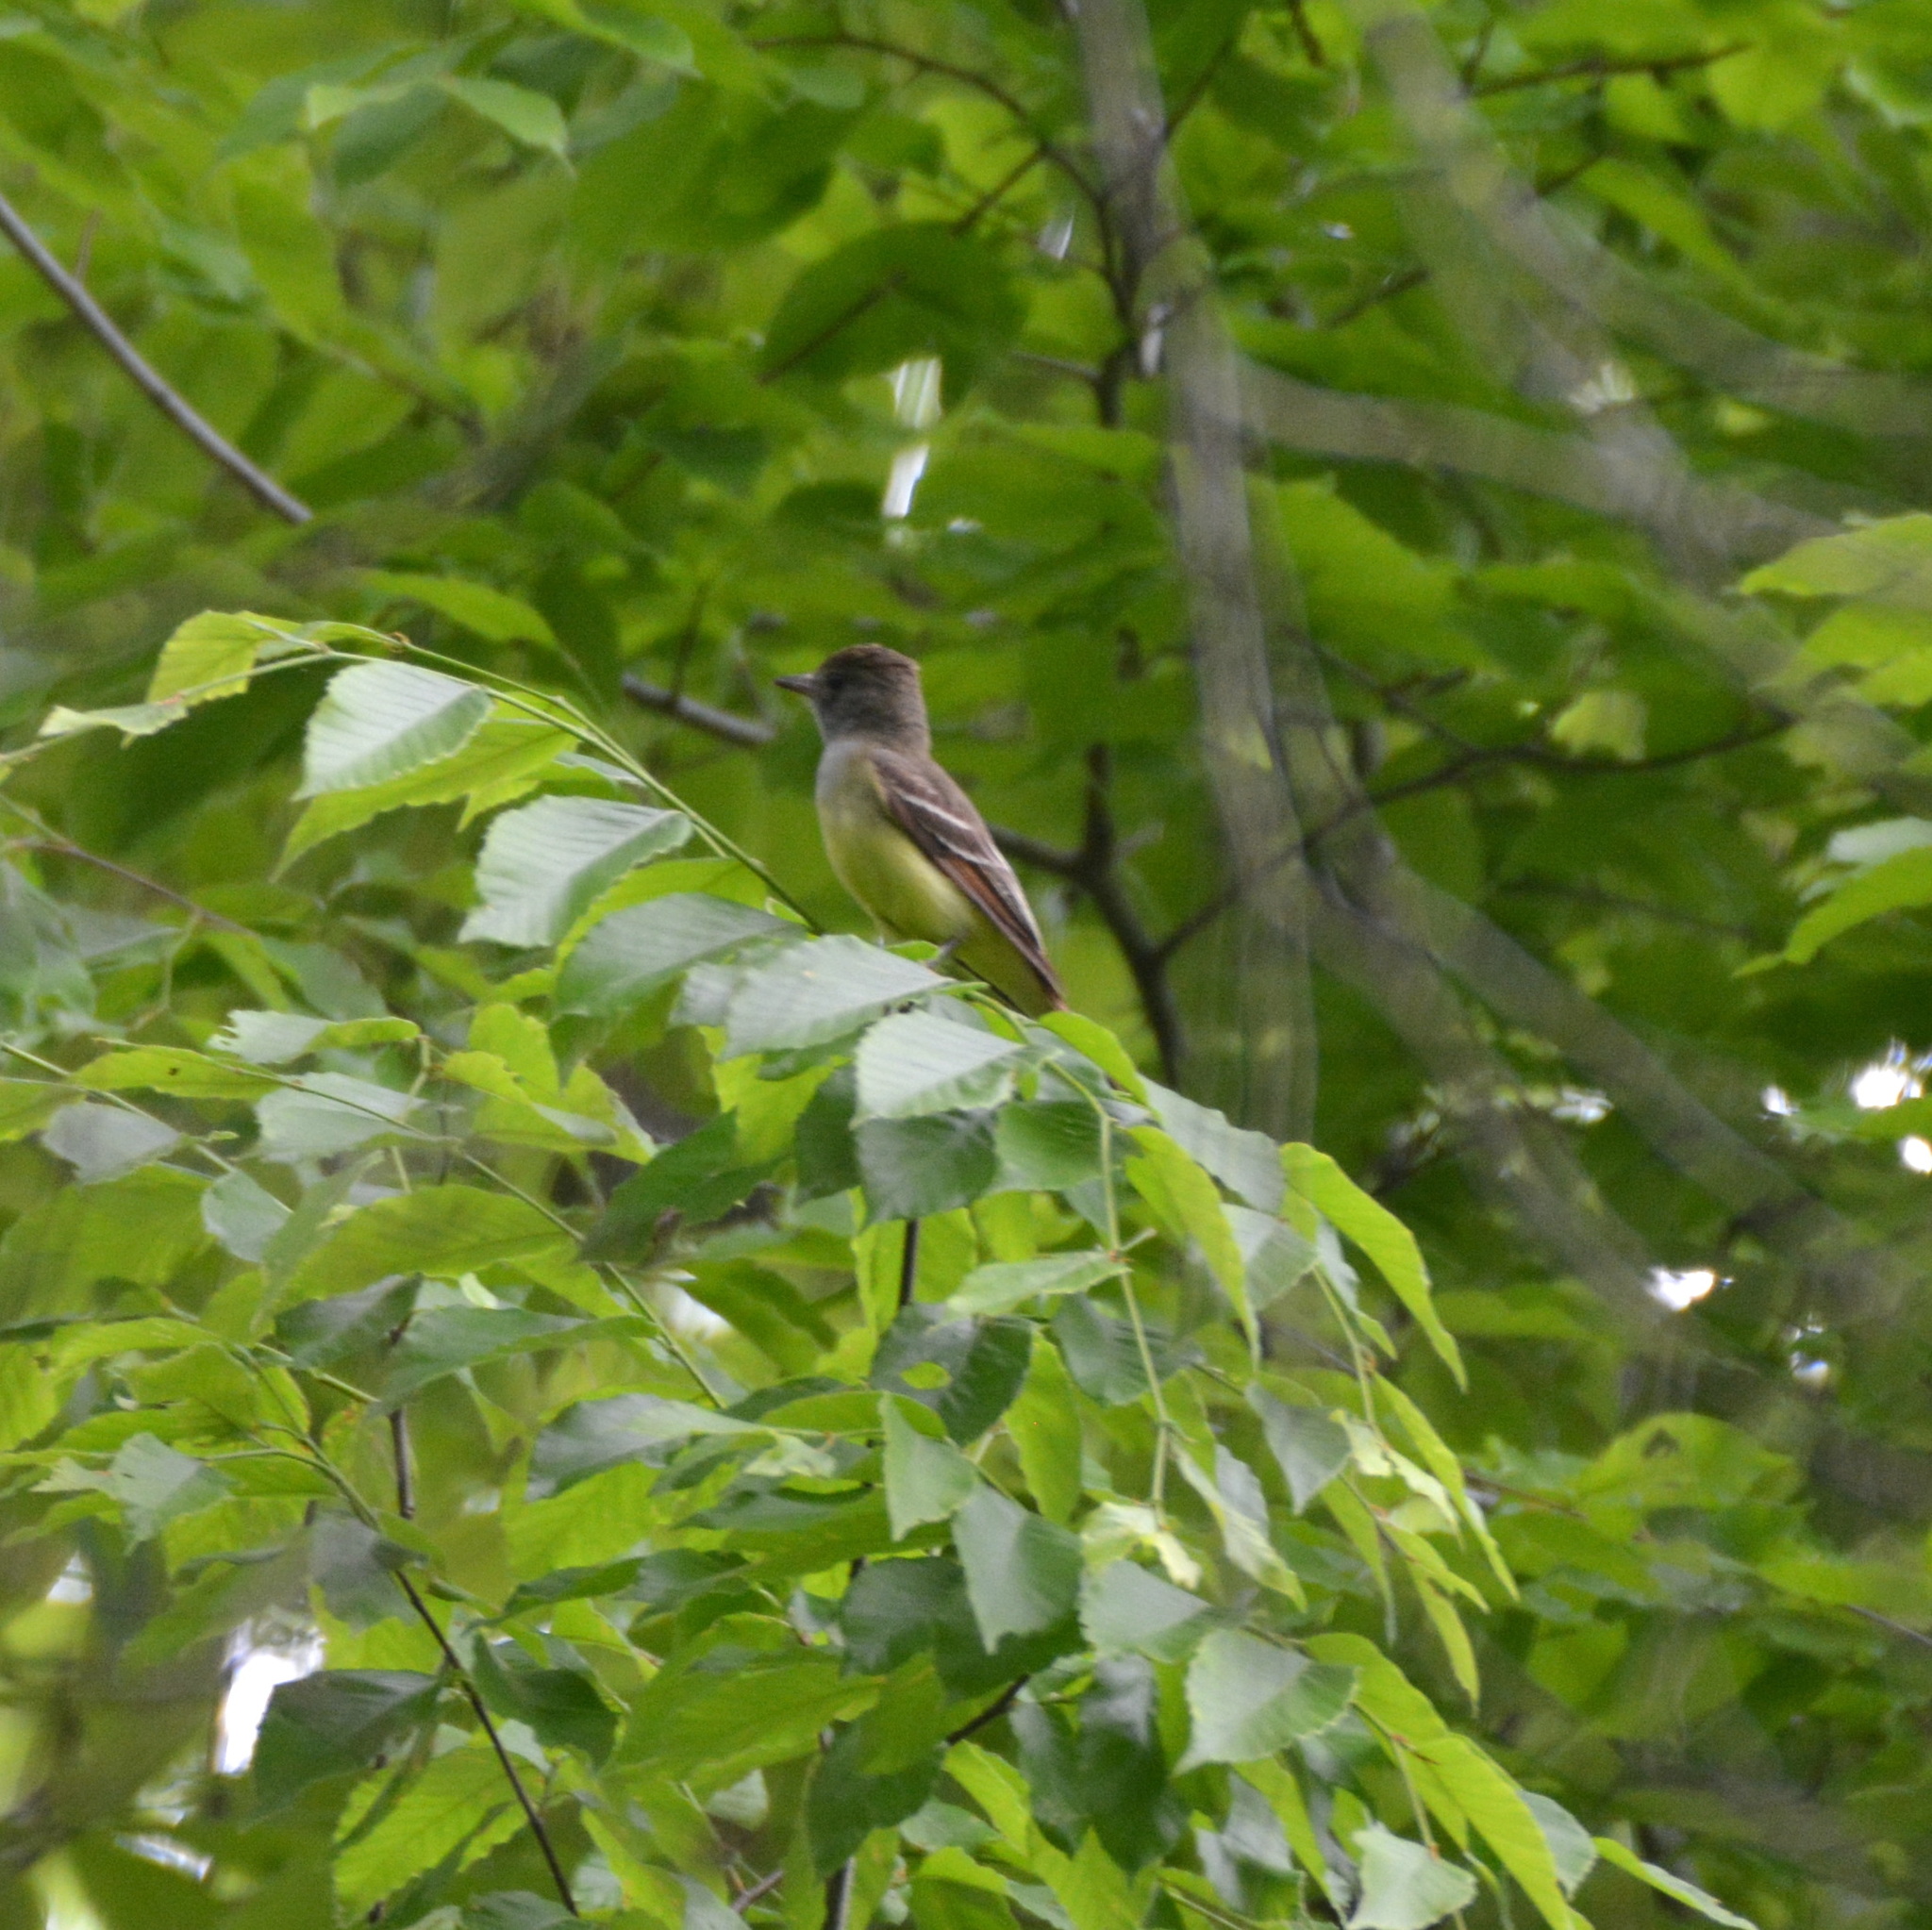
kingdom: Animalia
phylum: Chordata
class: Aves
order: Passeriformes
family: Tyrannidae
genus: Myiarchus
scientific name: Myiarchus crinitus
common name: Great crested flycatcher
